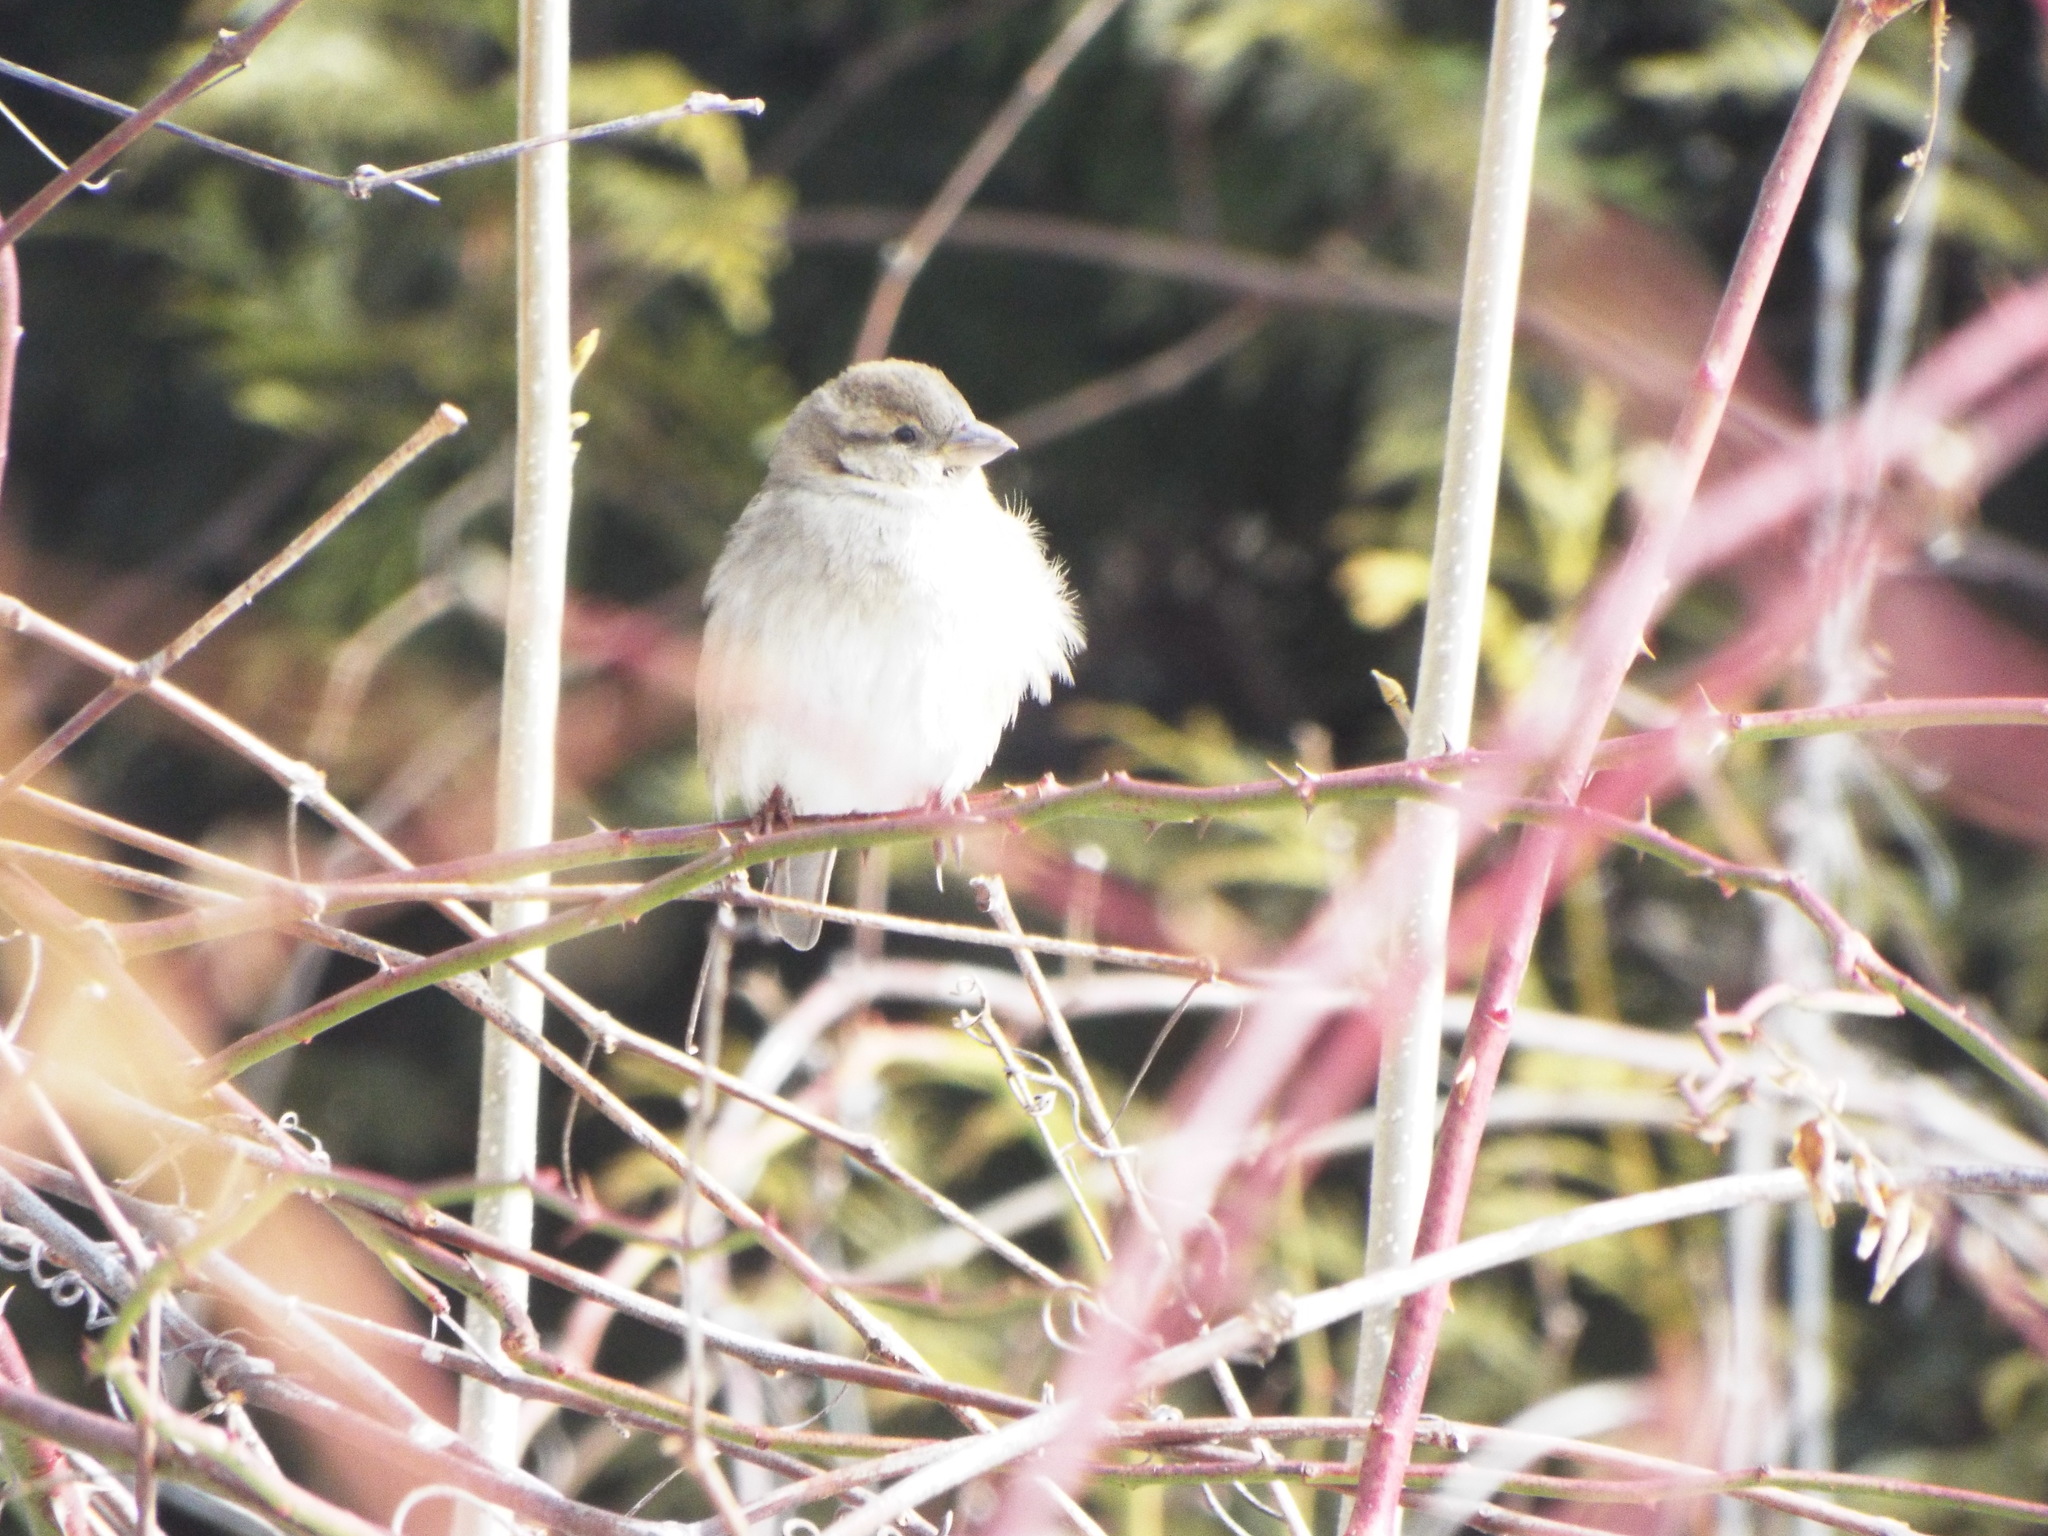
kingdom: Animalia
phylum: Chordata
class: Aves
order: Passeriformes
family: Passeridae
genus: Passer
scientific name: Passer domesticus
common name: House sparrow
